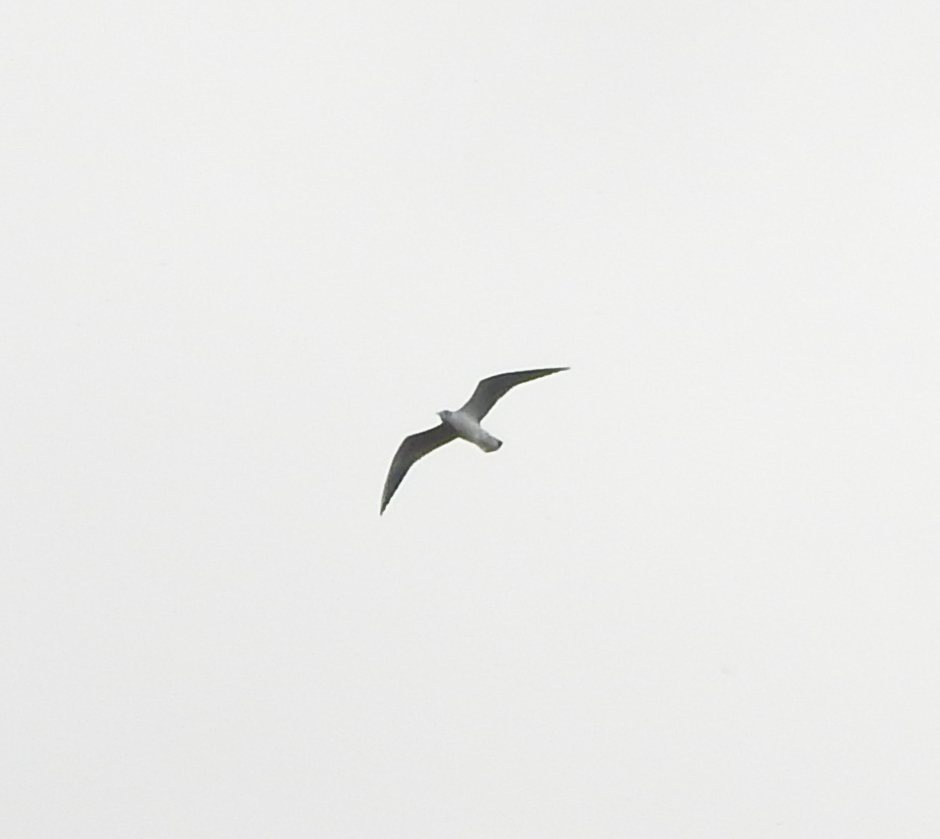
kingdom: Animalia
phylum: Chordata
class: Aves
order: Charadriiformes
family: Laridae
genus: Chroicocephalus
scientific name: Chroicocephalus ridibundus
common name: Black-headed gull
